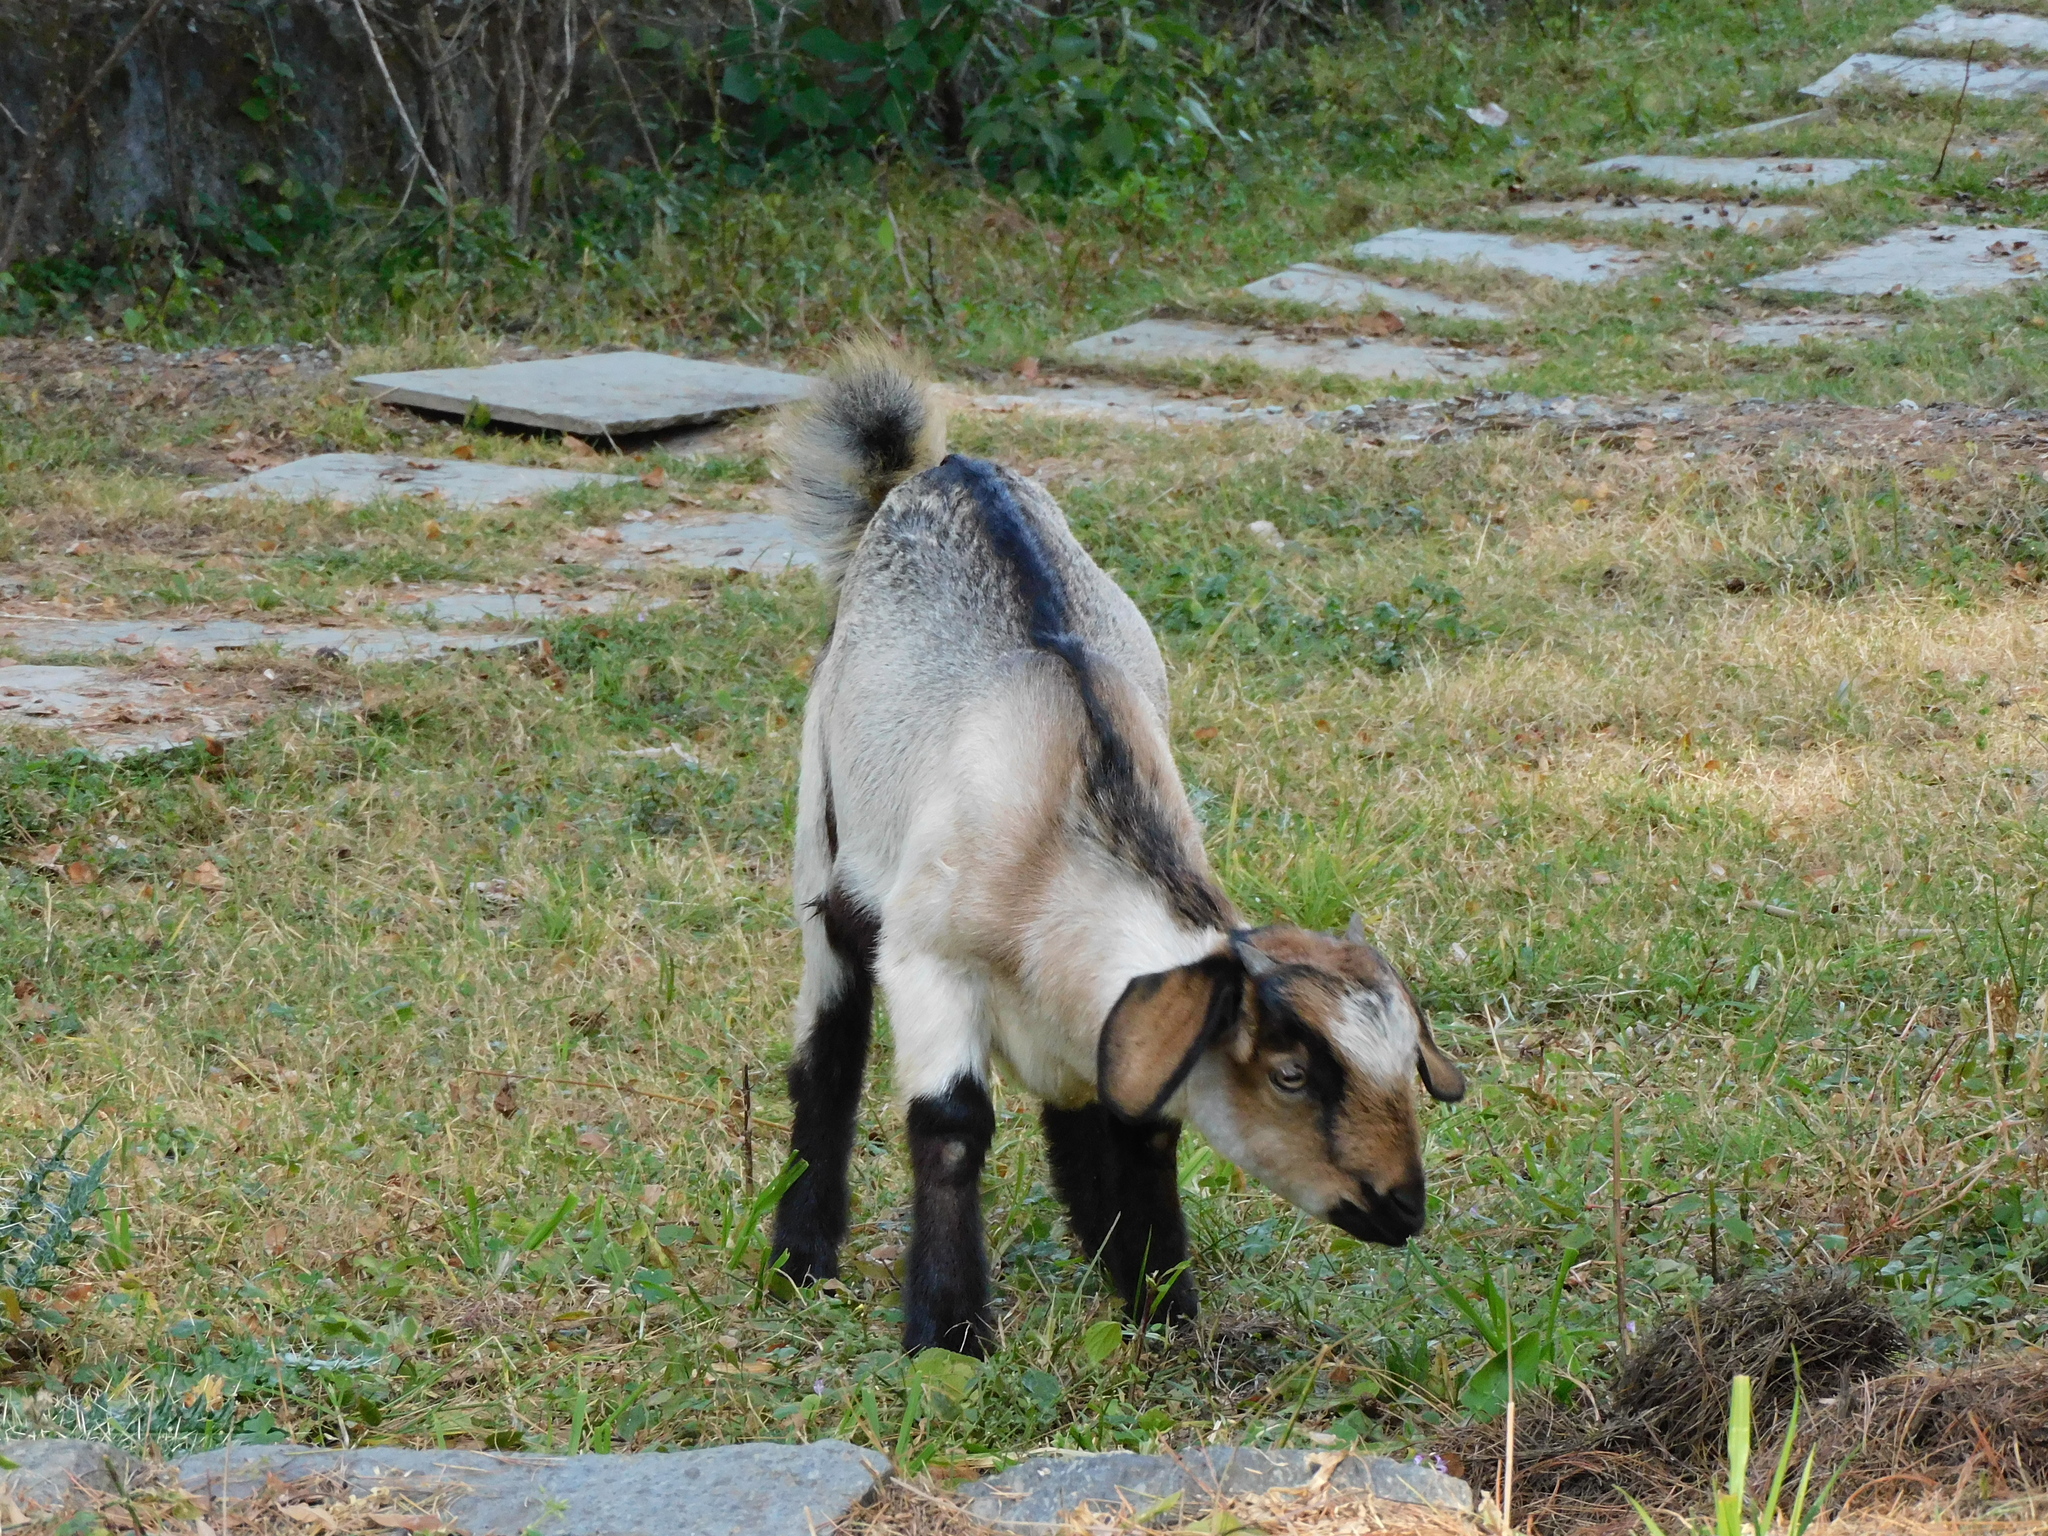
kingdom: Animalia
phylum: Chordata
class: Mammalia
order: Artiodactyla
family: Bovidae
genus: Capra
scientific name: Capra hircus
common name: Domestic goat
